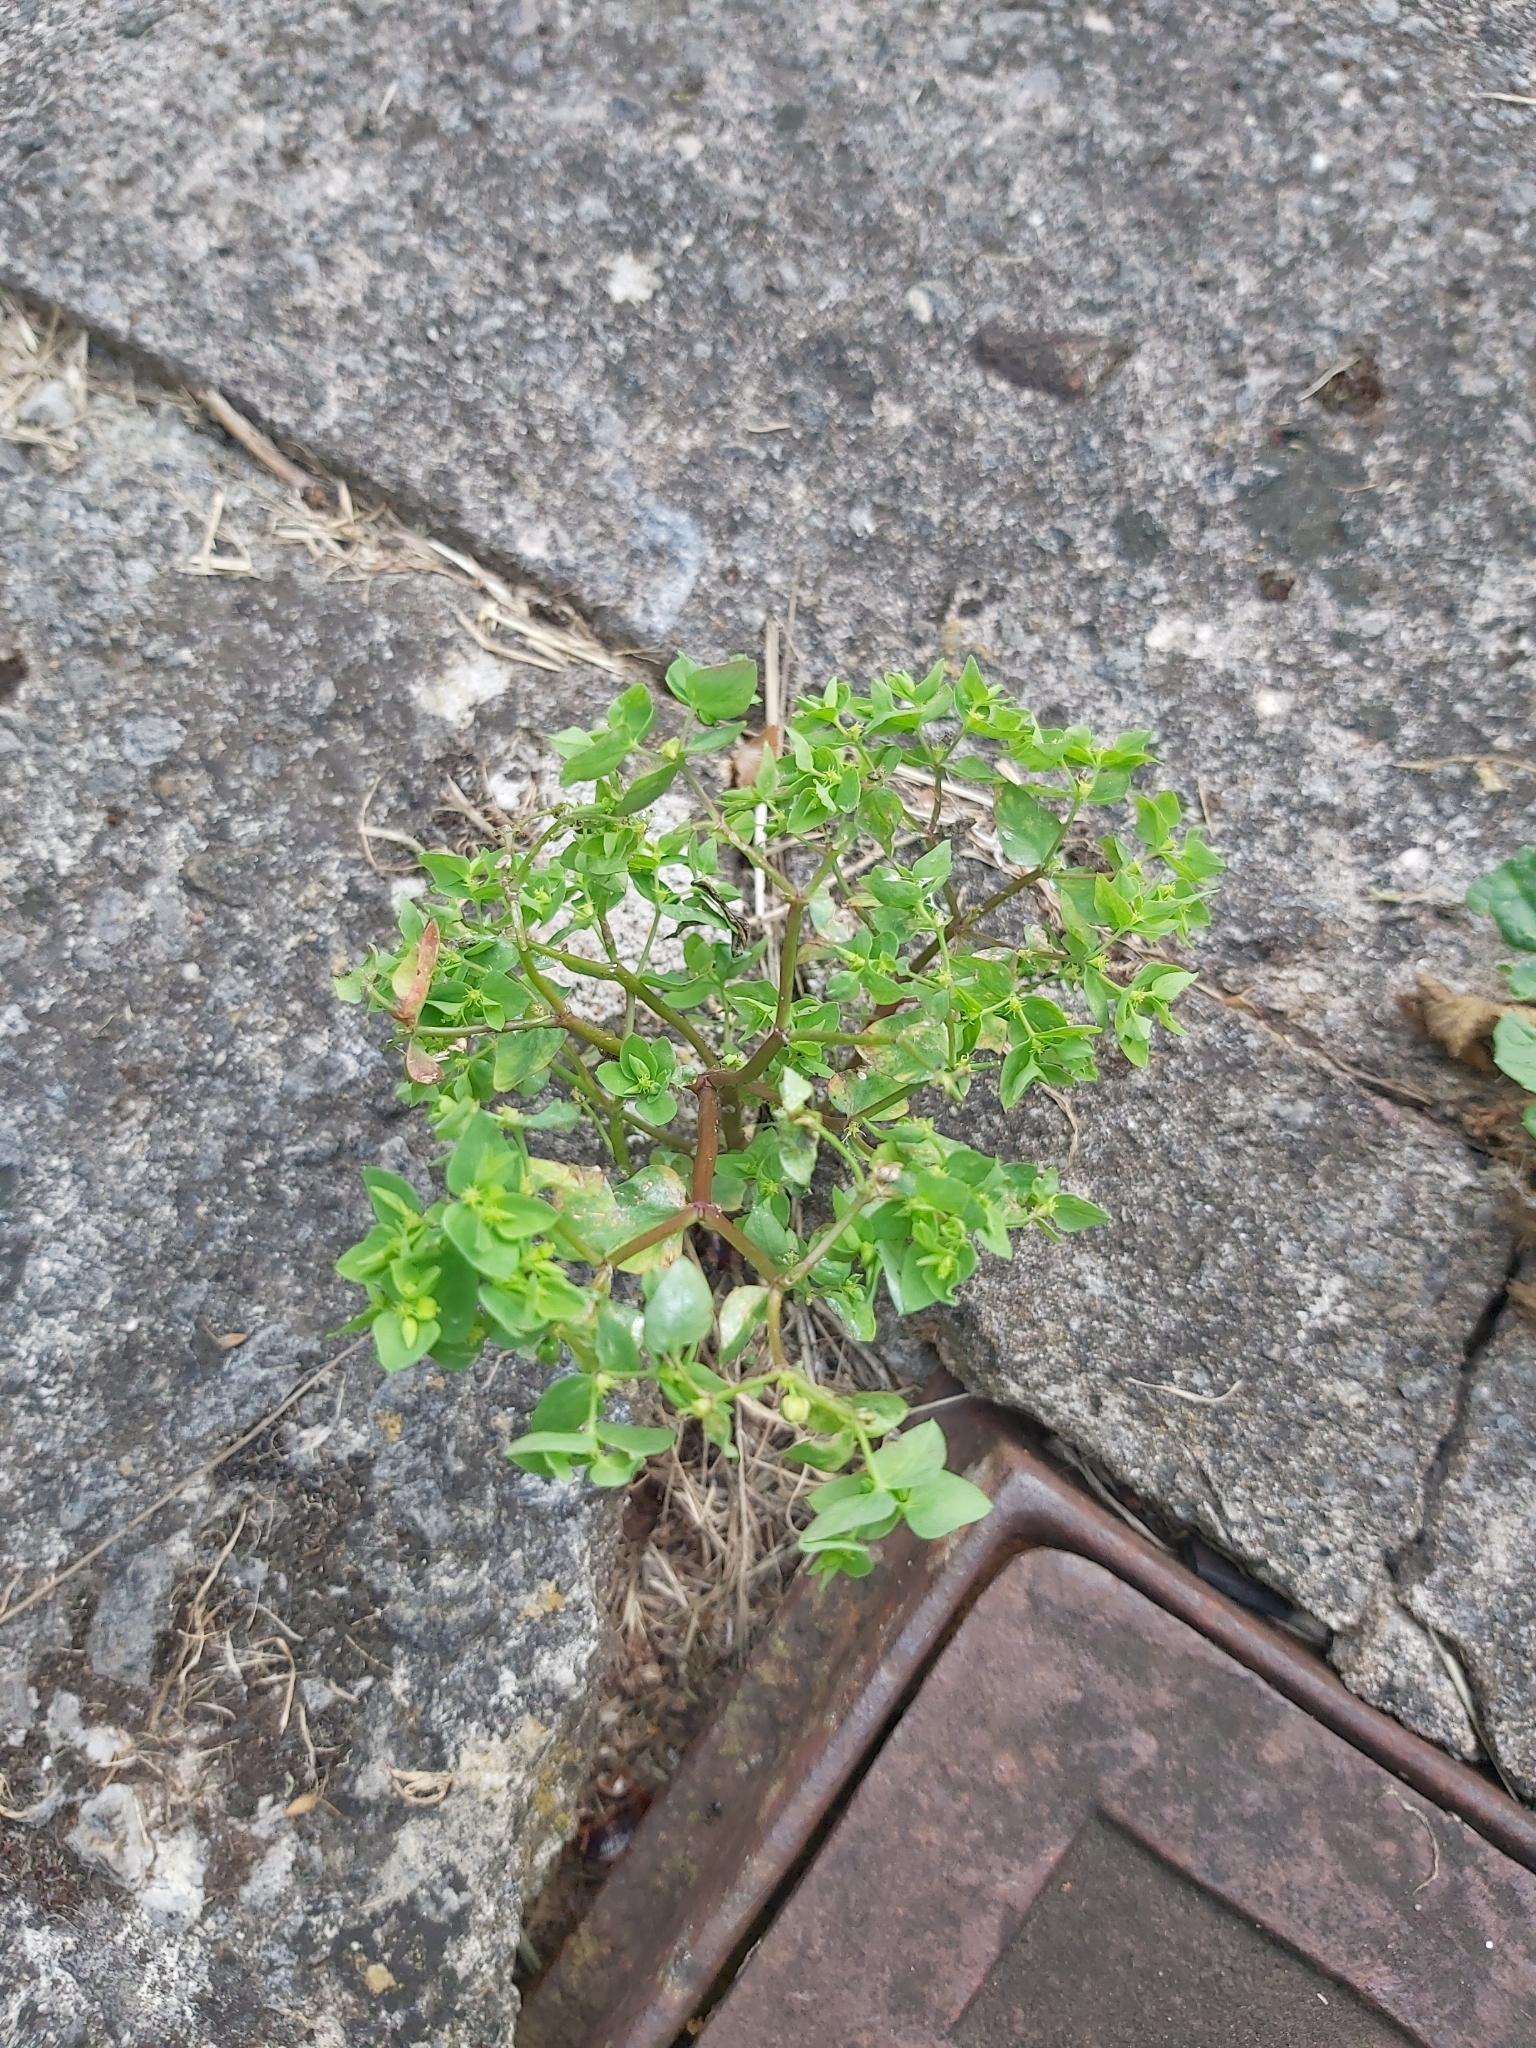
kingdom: Plantae
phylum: Tracheophyta
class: Magnoliopsida
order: Malpighiales
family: Euphorbiaceae
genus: Euphorbia
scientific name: Euphorbia peplus
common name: Petty spurge
